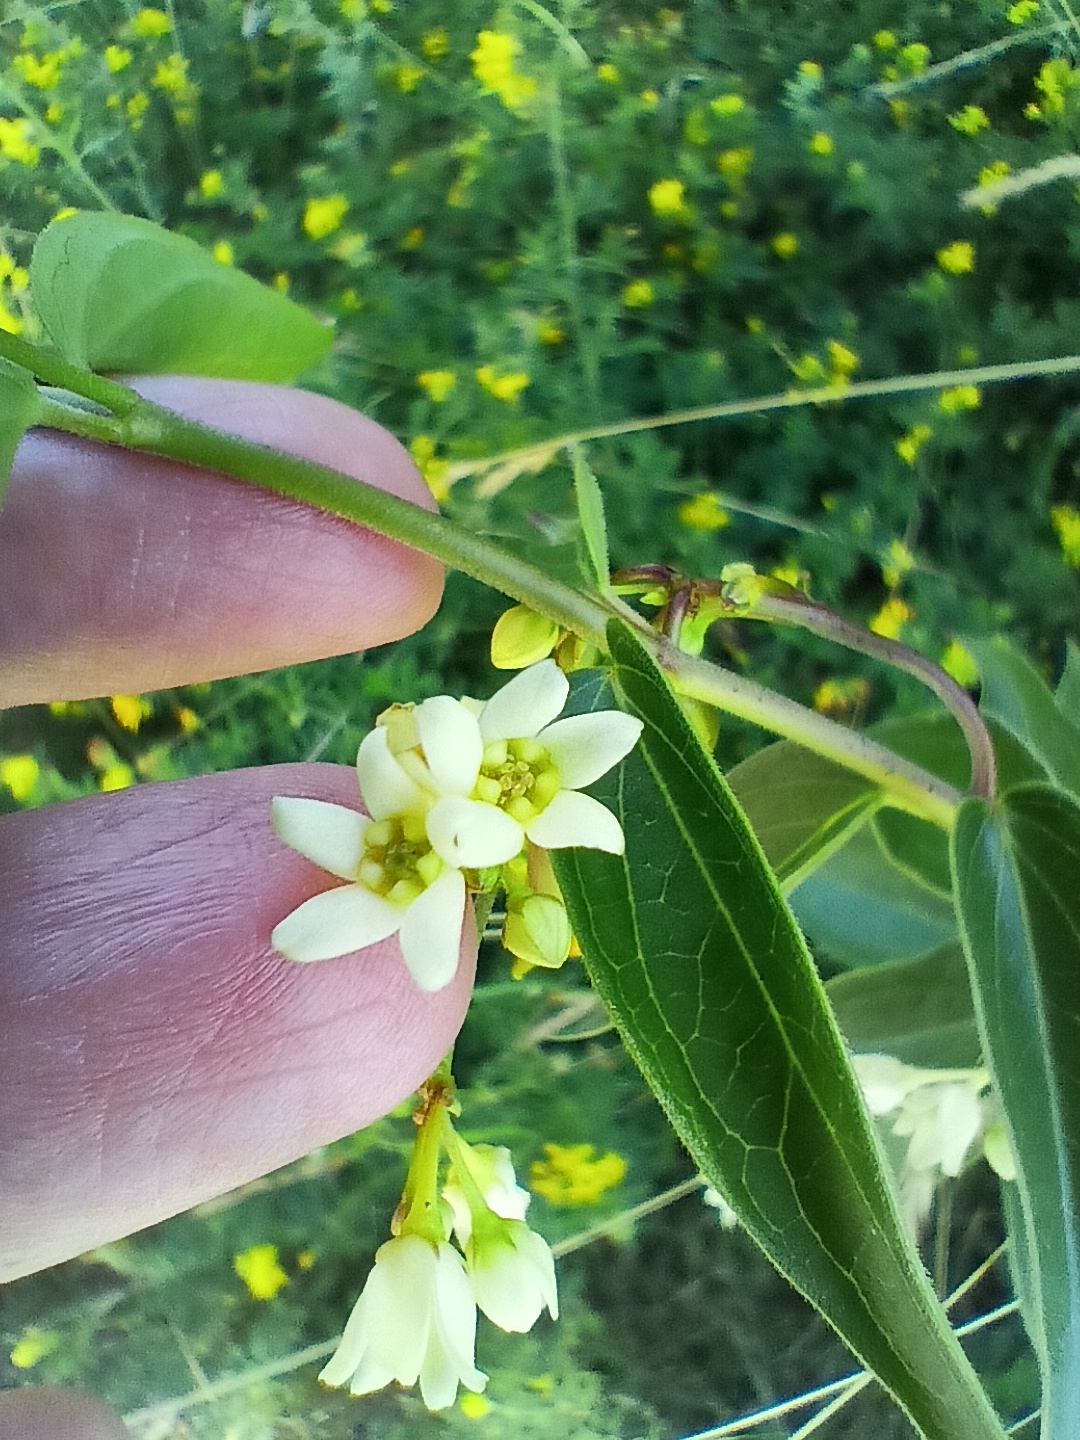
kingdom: Plantae
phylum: Tracheophyta
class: Magnoliopsida
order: Gentianales
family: Apocynaceae
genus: Vincetoxicum
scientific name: Vincetoxicum hirundinaria
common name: White swallowwort
